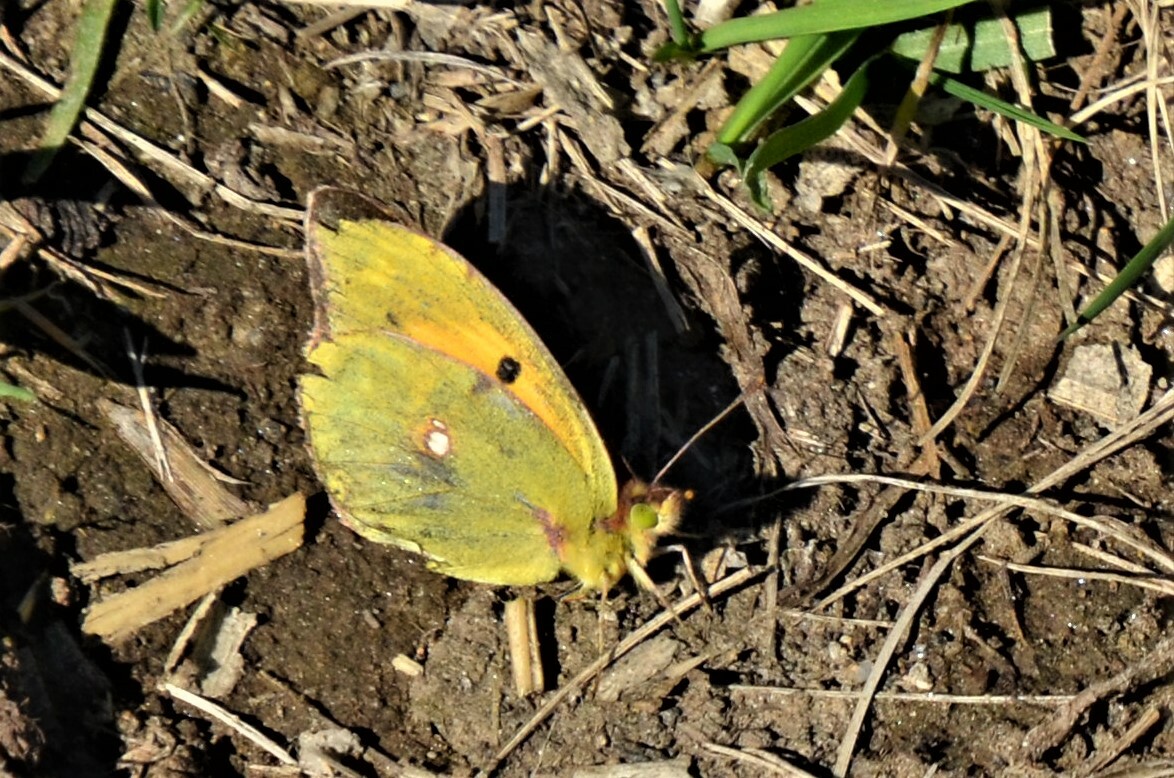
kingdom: Animalia
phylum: Arthropoda
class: Insecta
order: Lepidoptera
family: Pieridae
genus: Colias
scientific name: Colias croceus
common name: Clouded yellow
